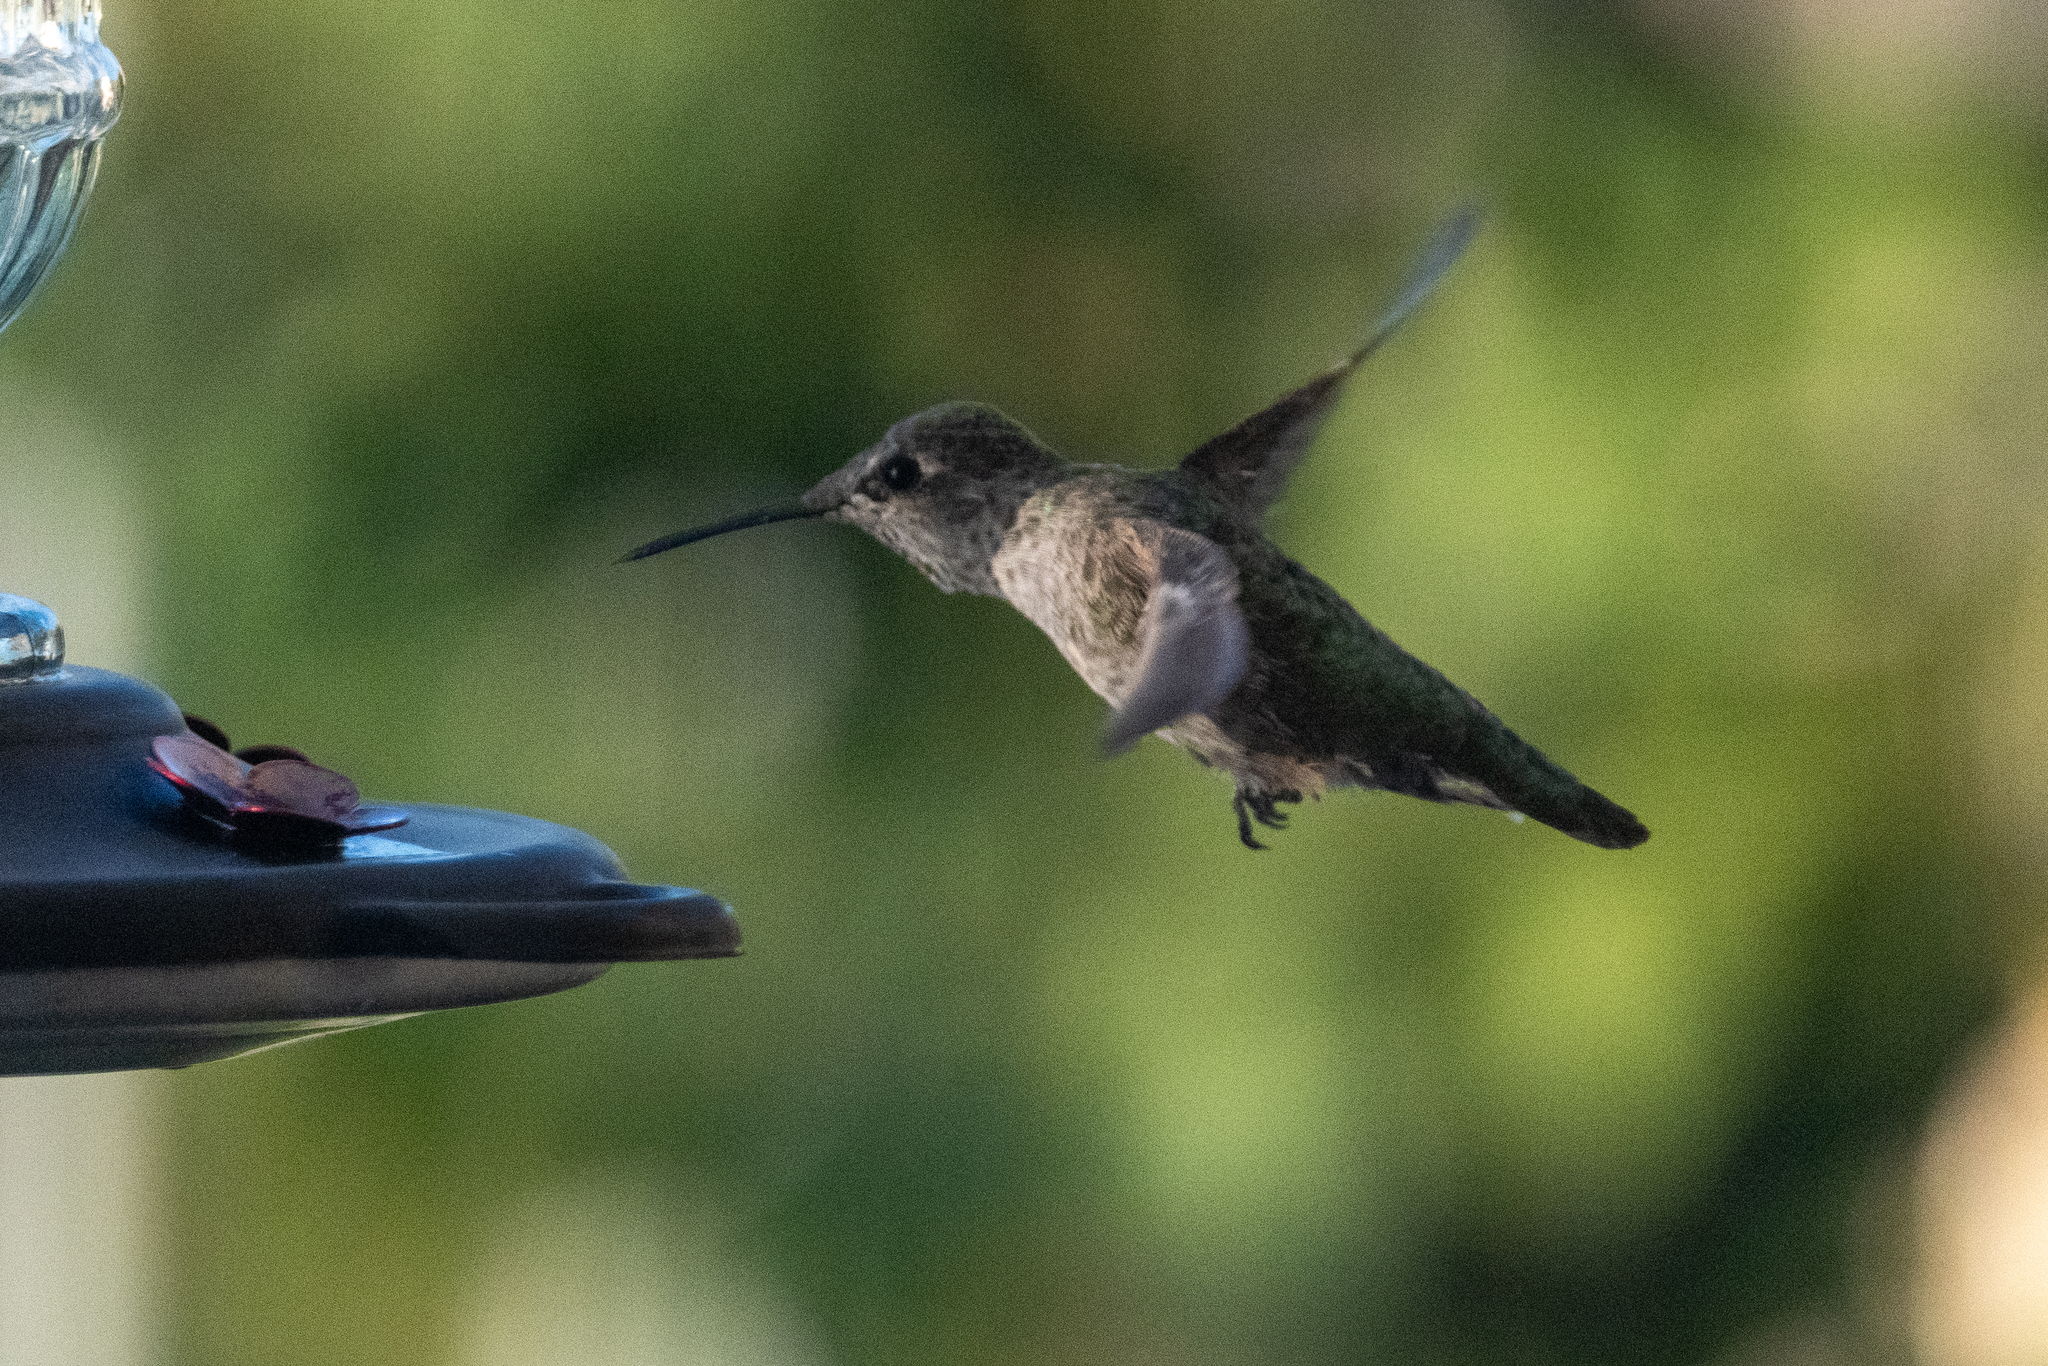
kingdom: Animalia
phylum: Chordata
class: Aves
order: Apodiformes
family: Trochilidae
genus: Calypte
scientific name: Calypte anna
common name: Anna's hummingbird
